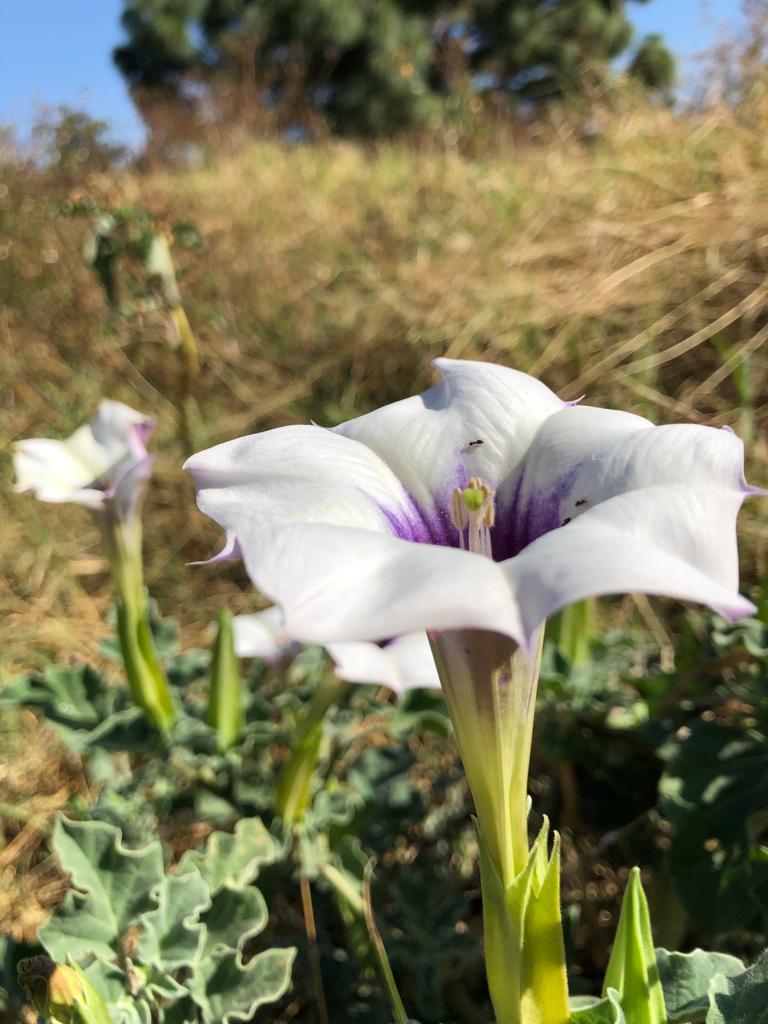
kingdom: Plantae
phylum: Tracheophyta
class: Magnoliopsida
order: Solanales
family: Solanaceae
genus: Datura
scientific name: Datura discolor
